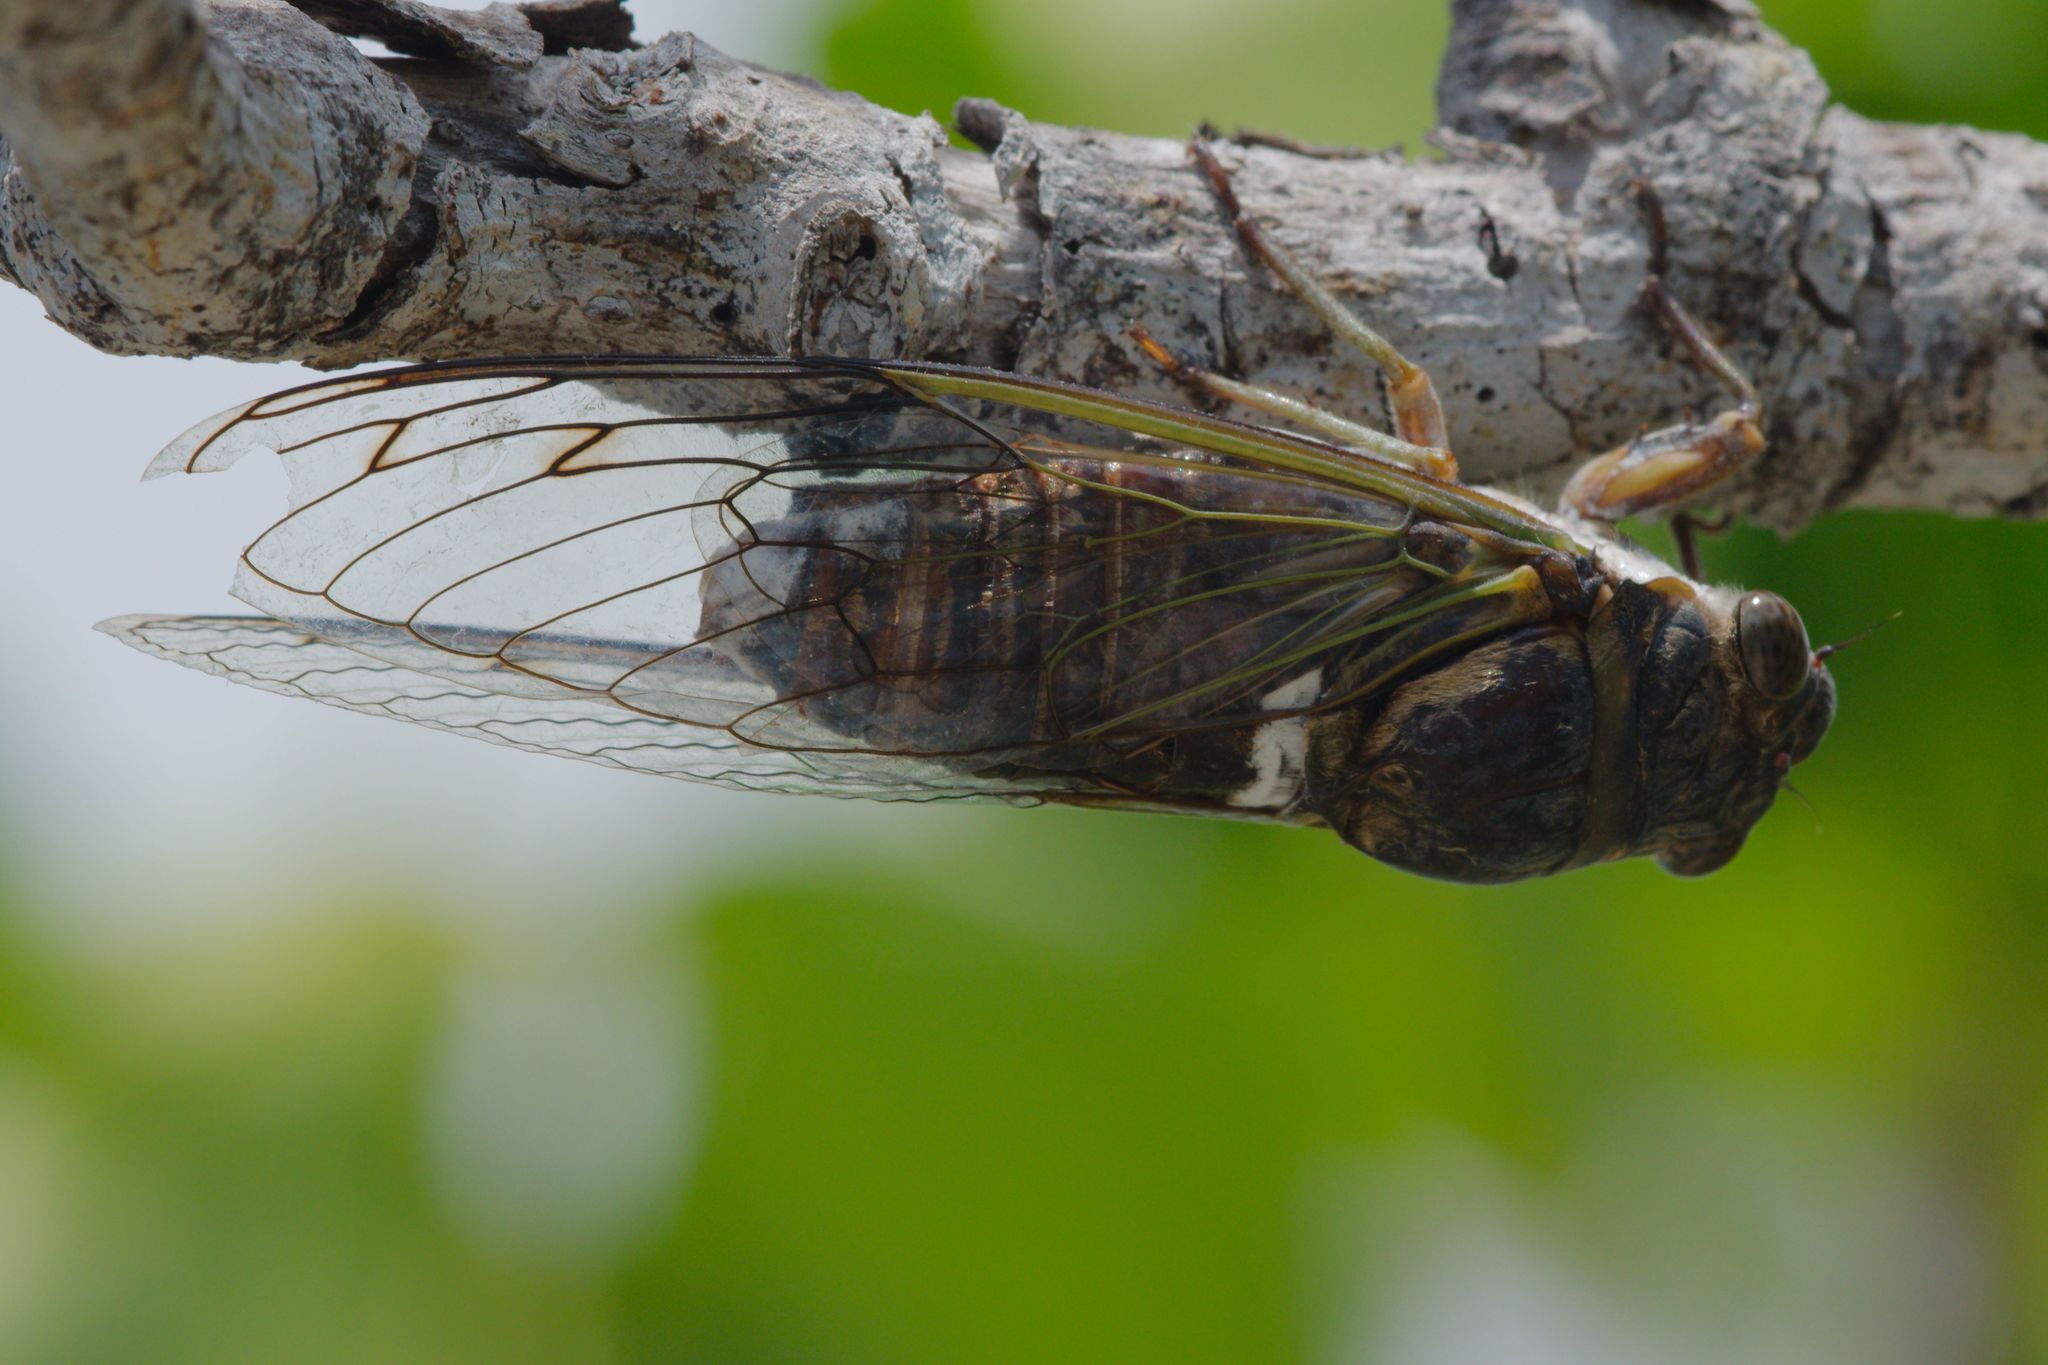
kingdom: Animalia
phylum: Arthropoda
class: Insecta
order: Hemiptera
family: Cicadidae
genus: Diceroprocta
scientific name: Diceroprocta biconica
